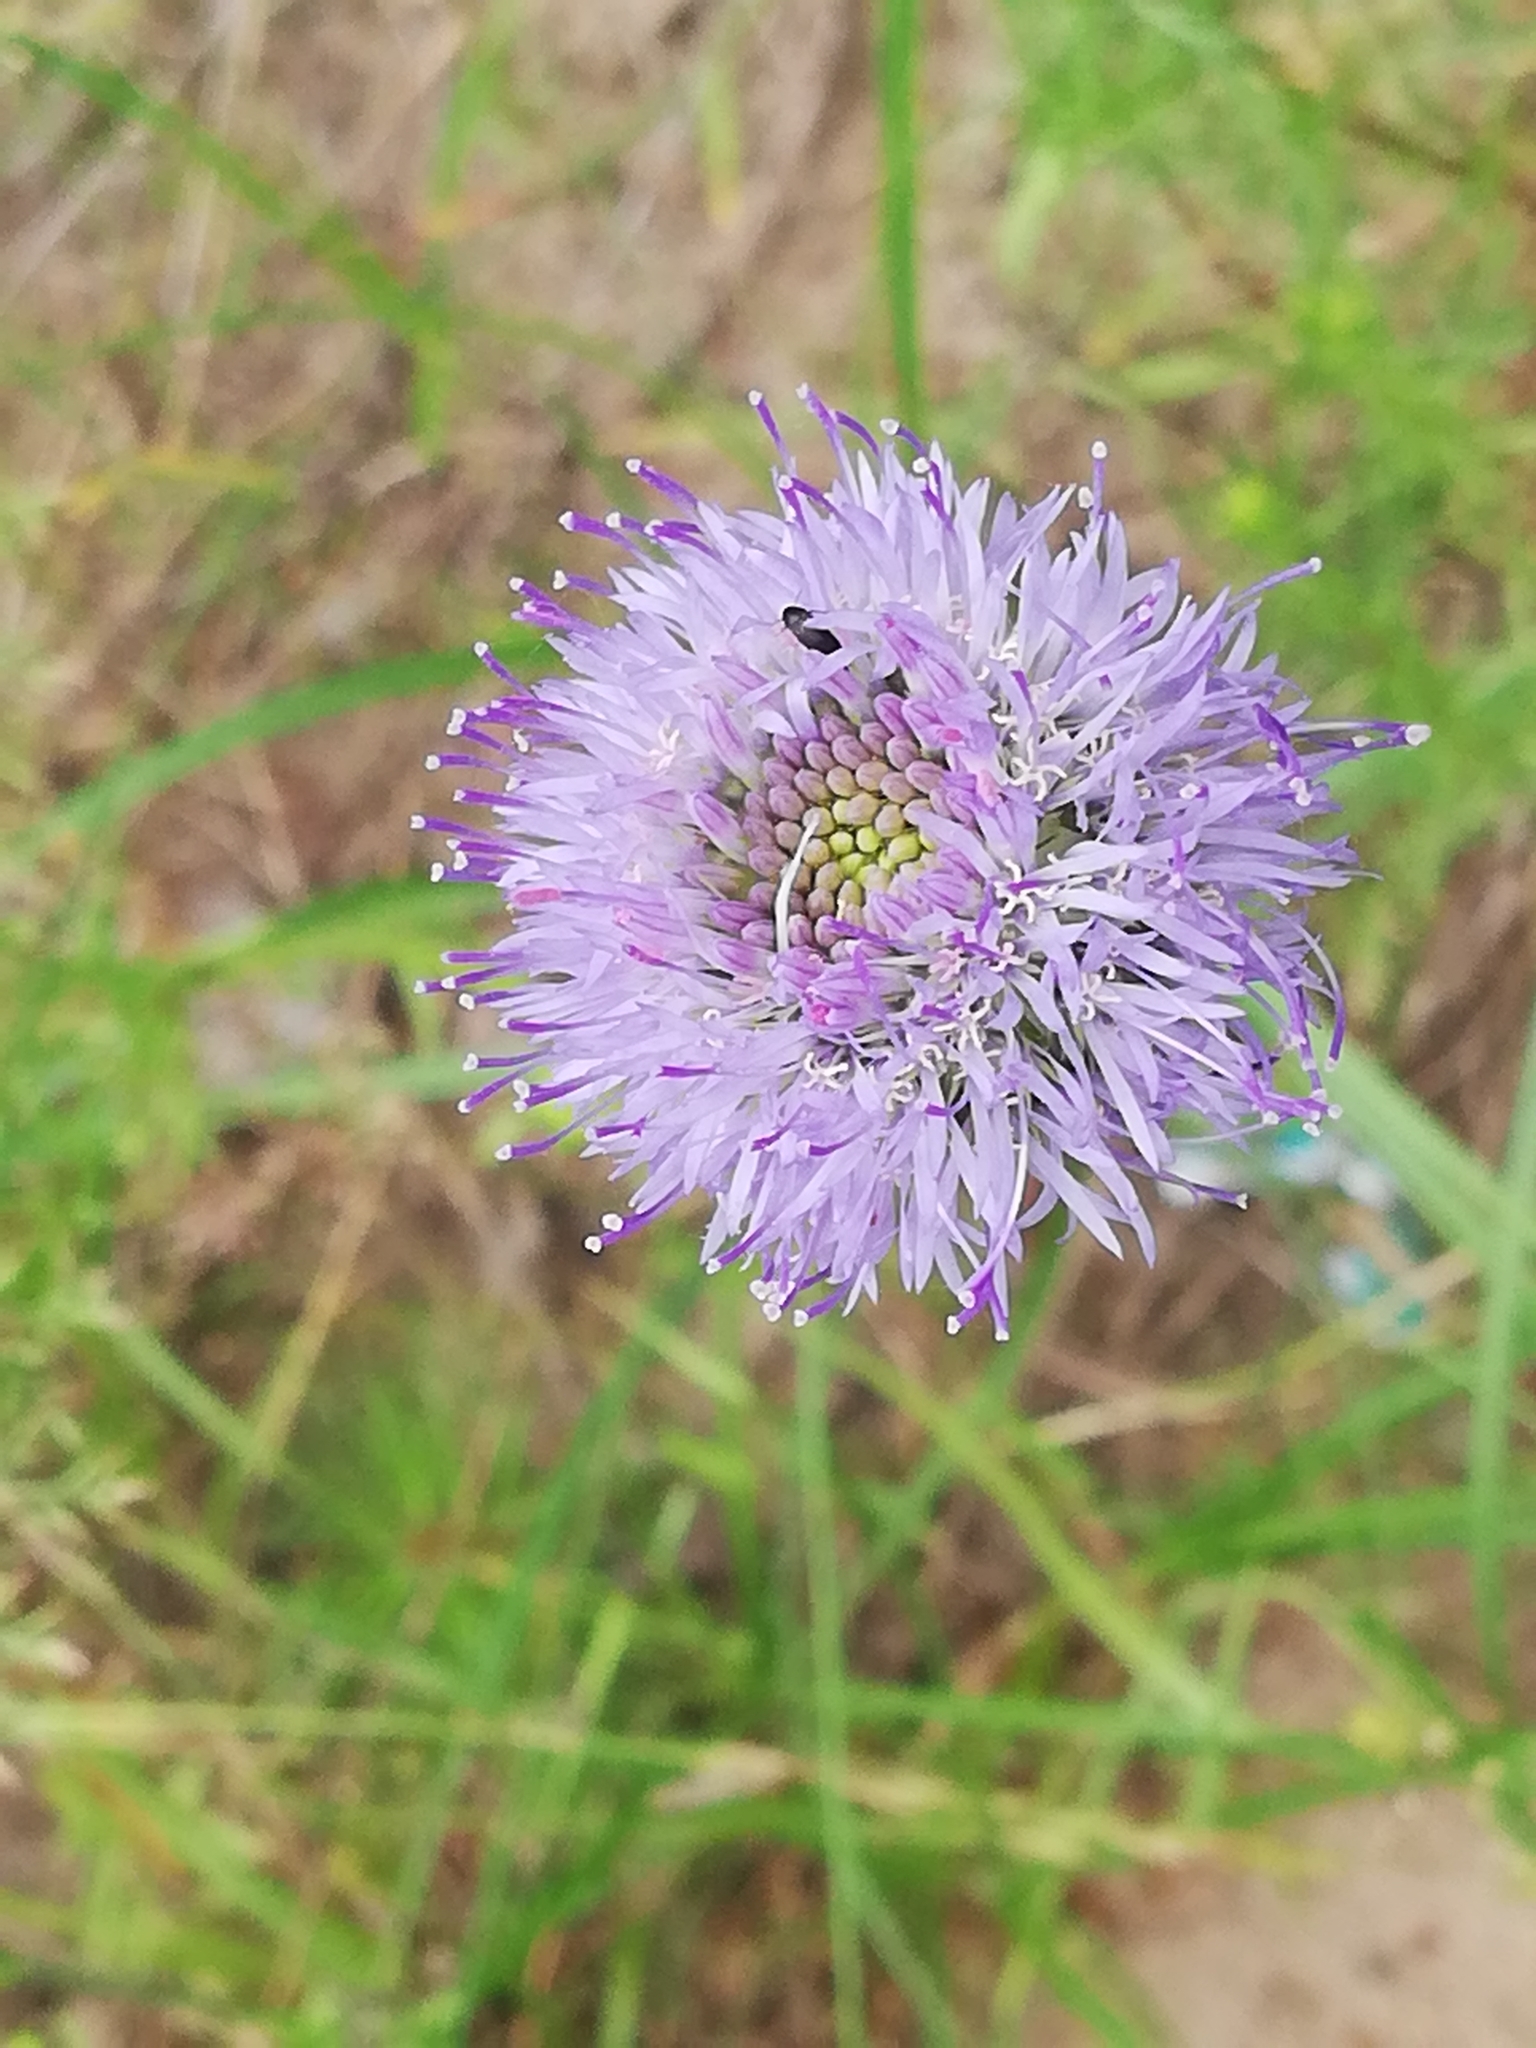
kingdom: Plantae
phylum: Tracheophyta
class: Magnoliopsida
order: Asterales
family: Campanulaceae
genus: Jasione
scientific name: Jasione montana
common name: Sheep's-bit
